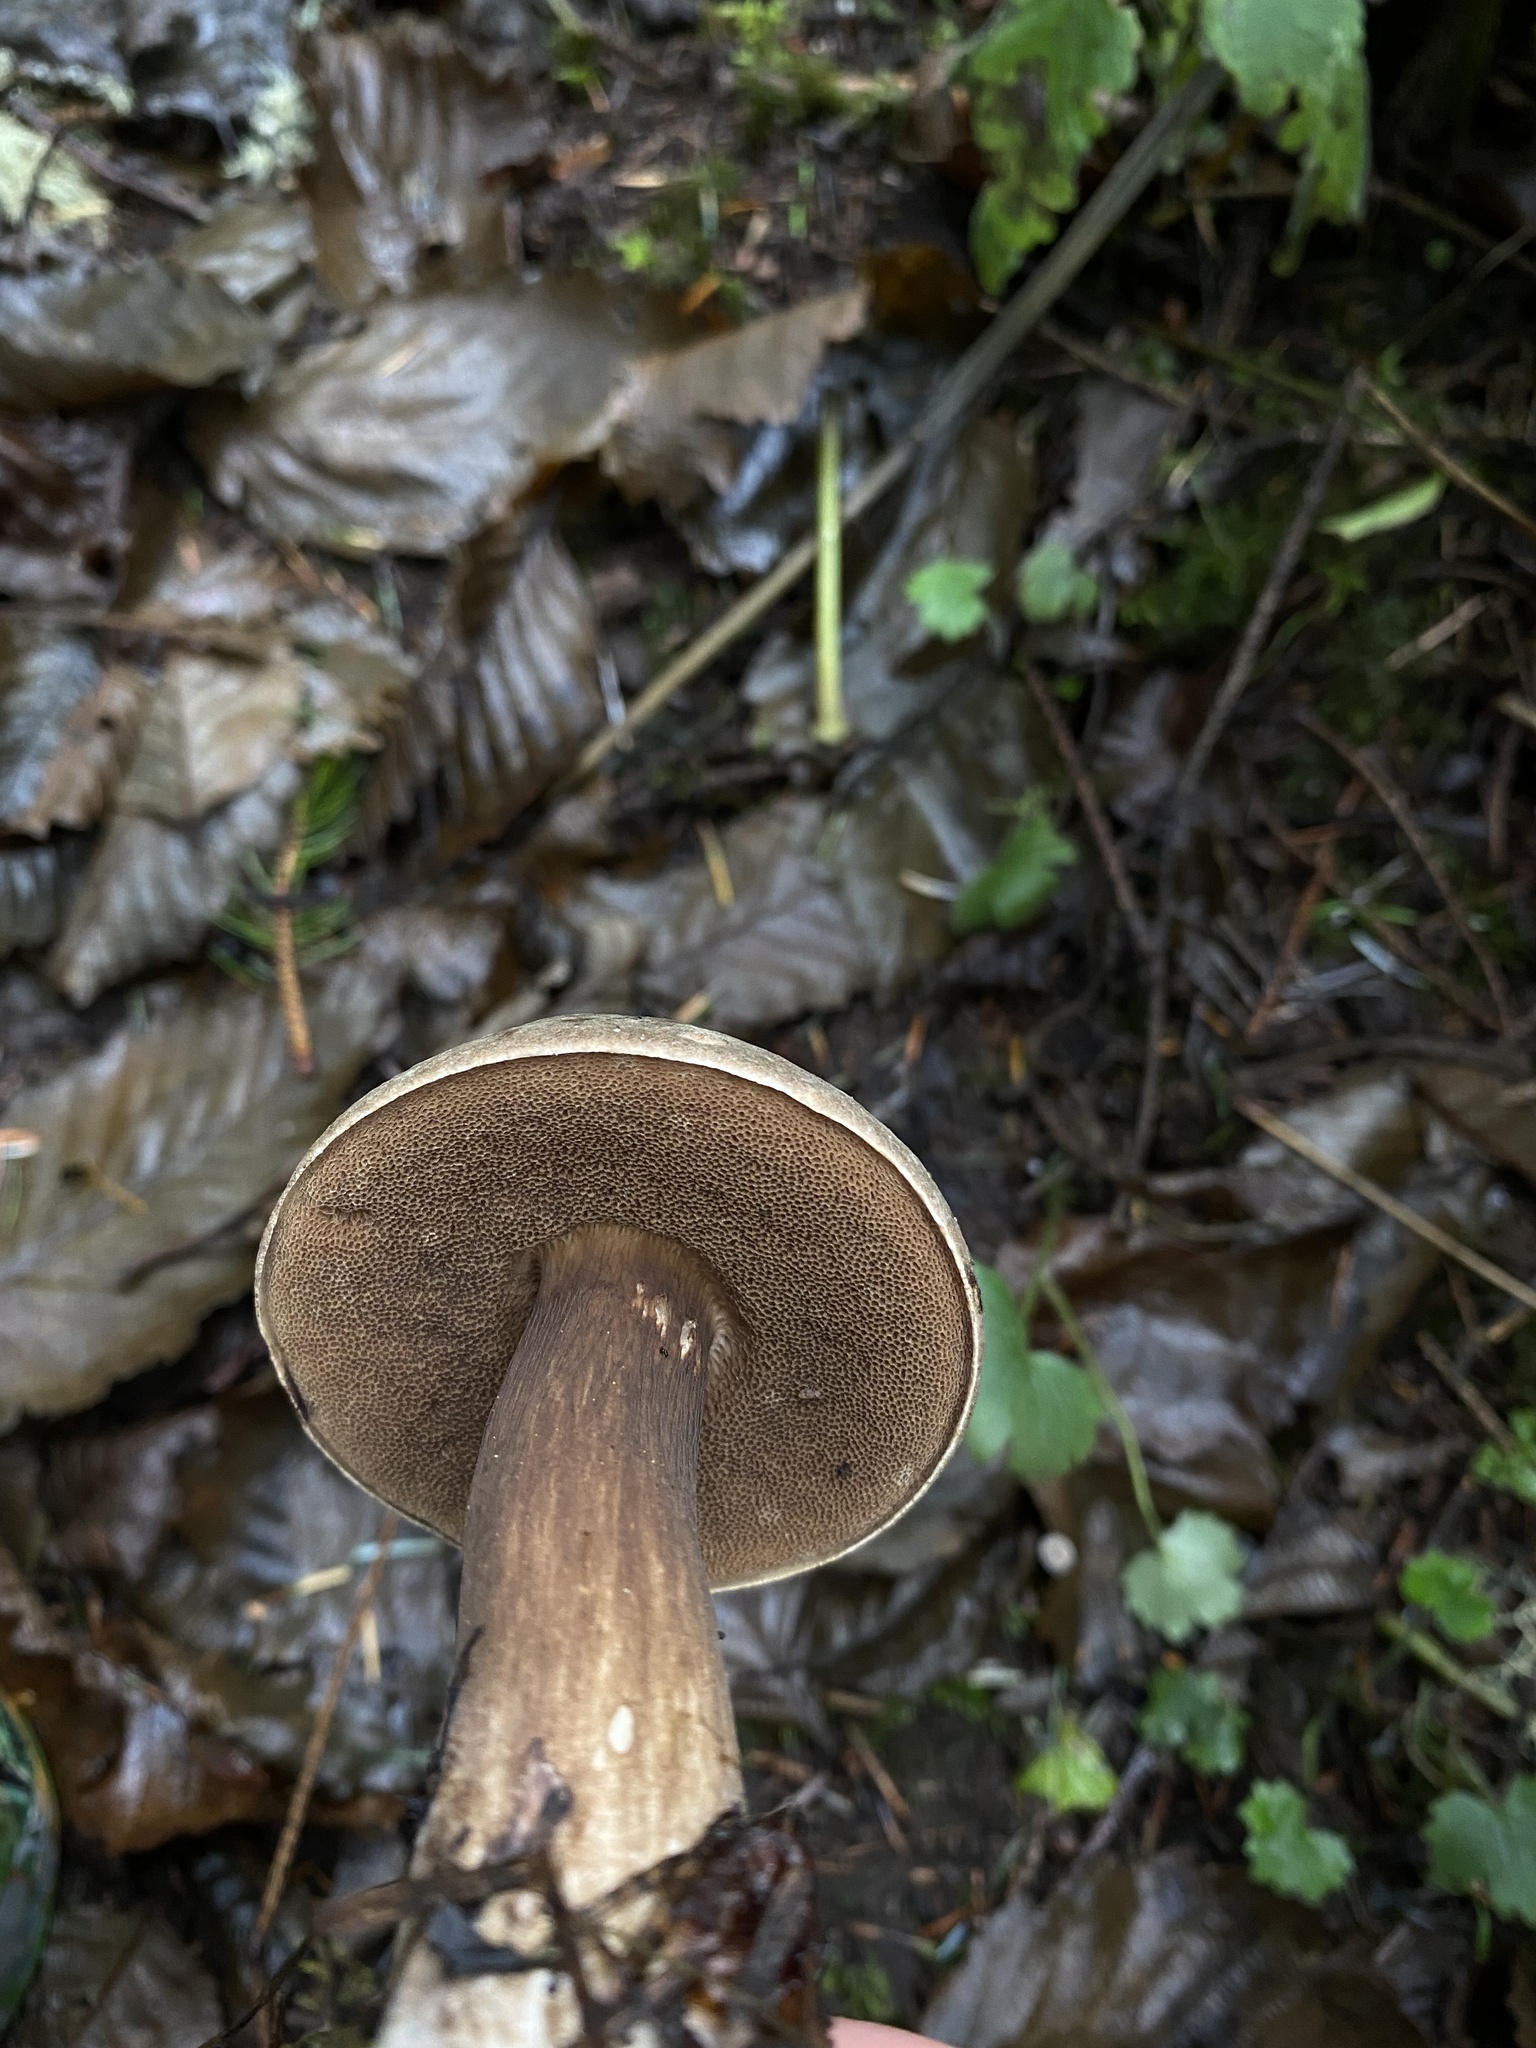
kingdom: Fungi
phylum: Basidiomycota
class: Agaricomycetes
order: Boletales
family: Boletaceae
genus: Porphyrellus
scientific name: Porphyrellus porphyrosporus
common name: Dusky bolete
